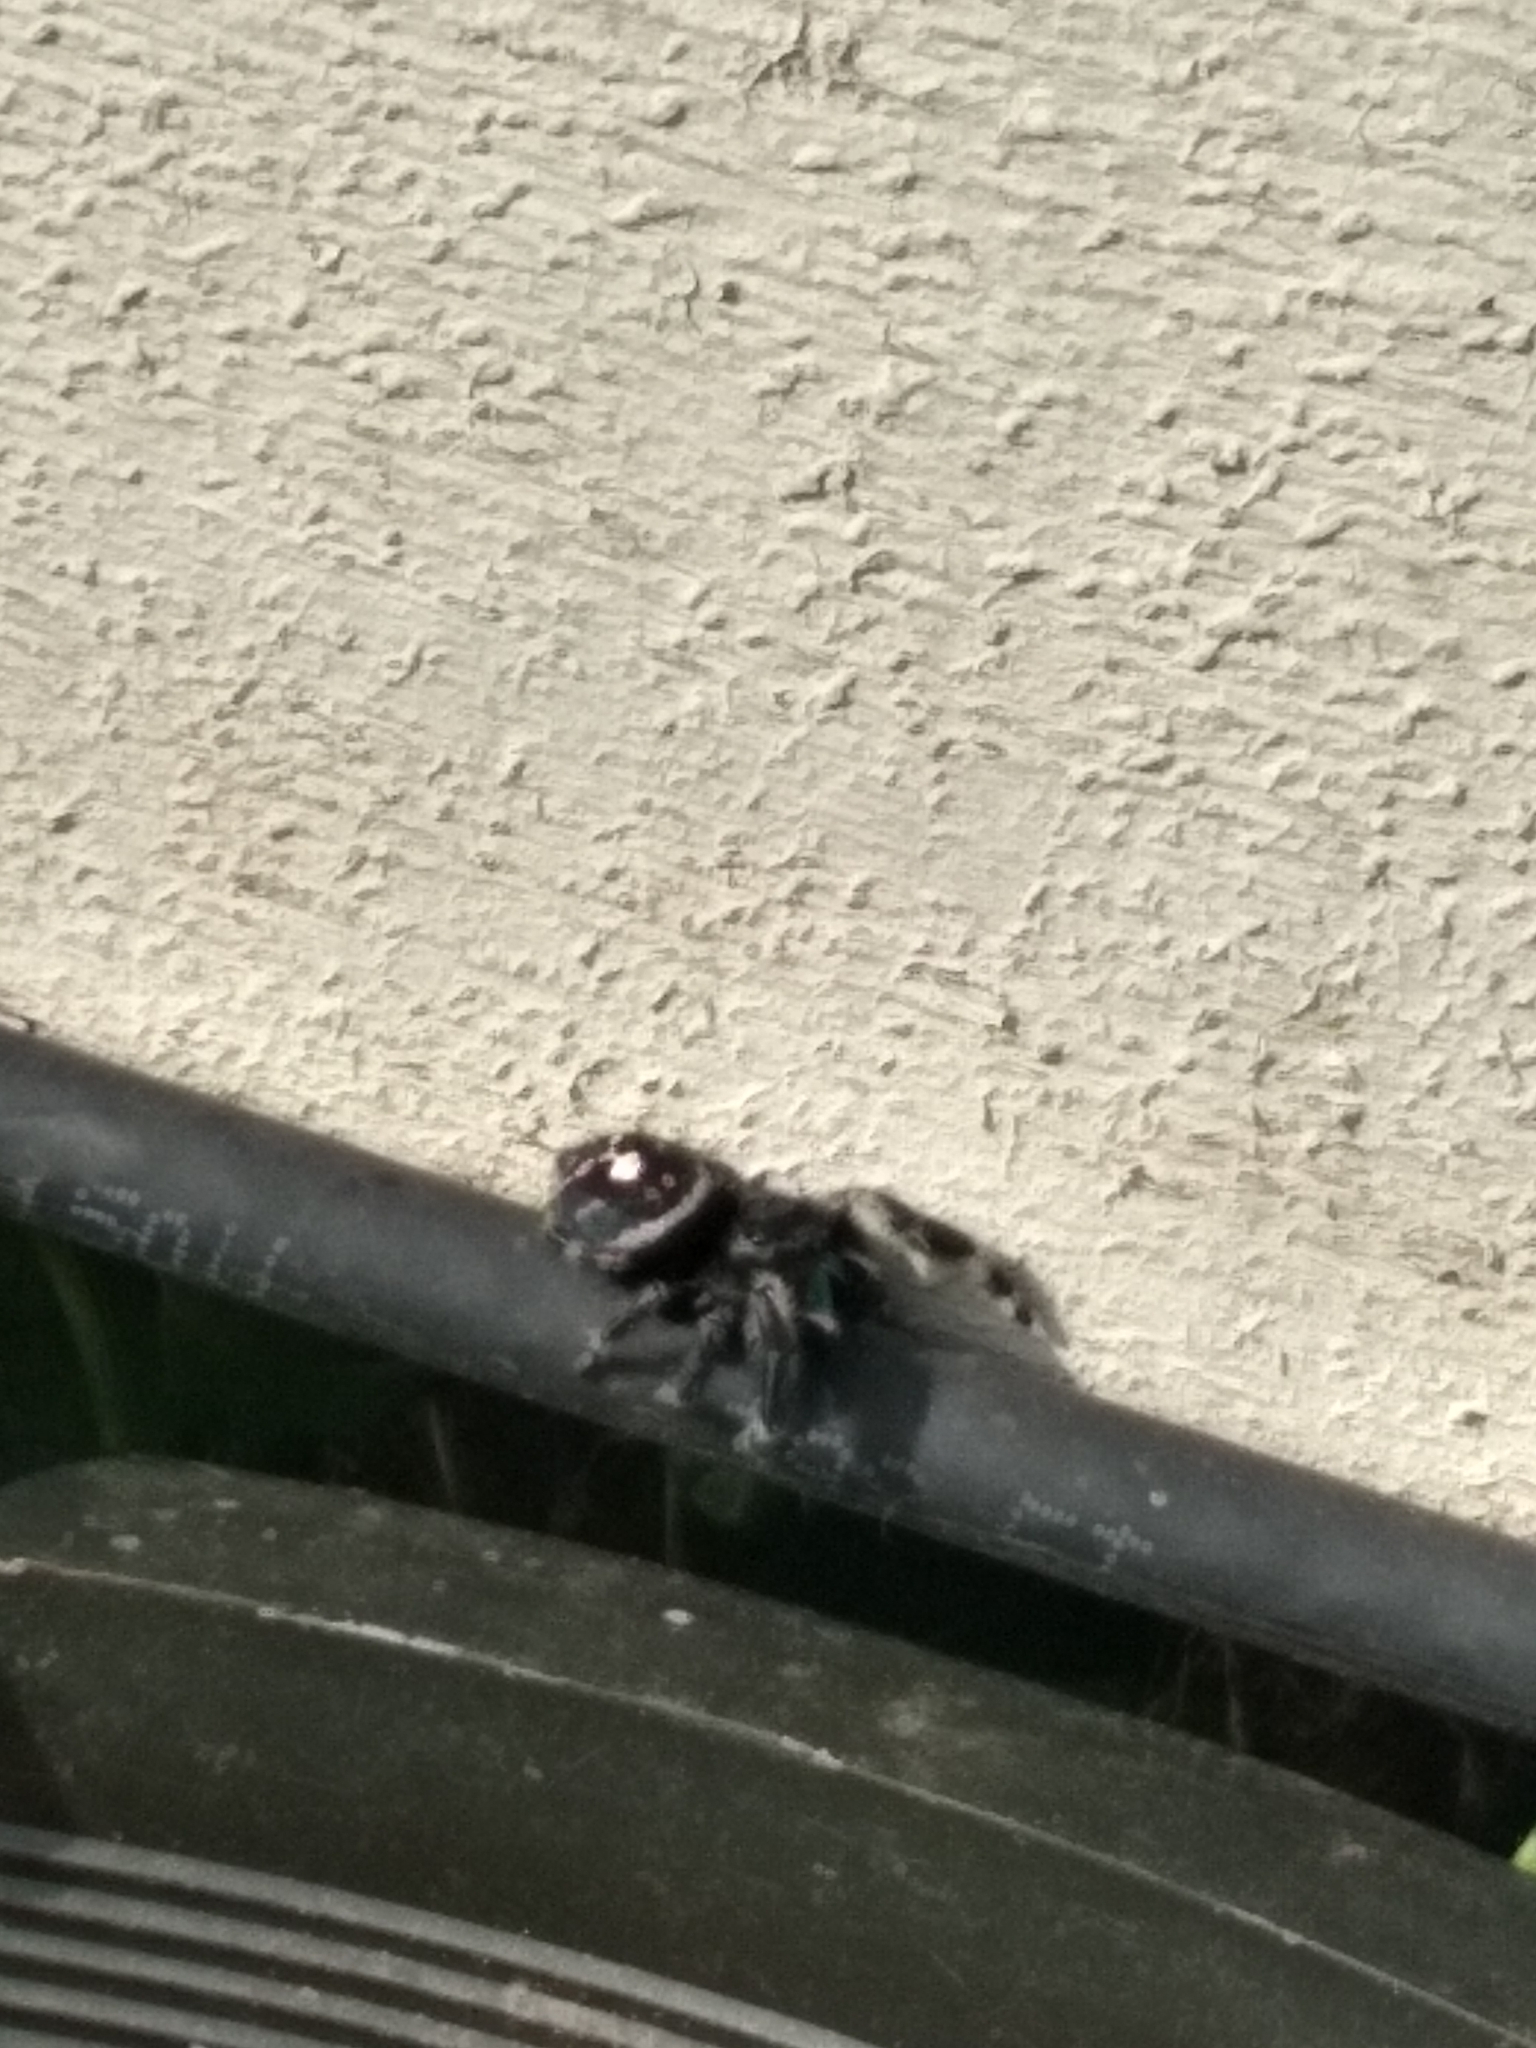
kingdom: Animalia
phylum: Arthropoda
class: Arachnida
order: Araneae
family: Salticidae
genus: Phidippus
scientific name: Phidippus audax
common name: Bold jumper
